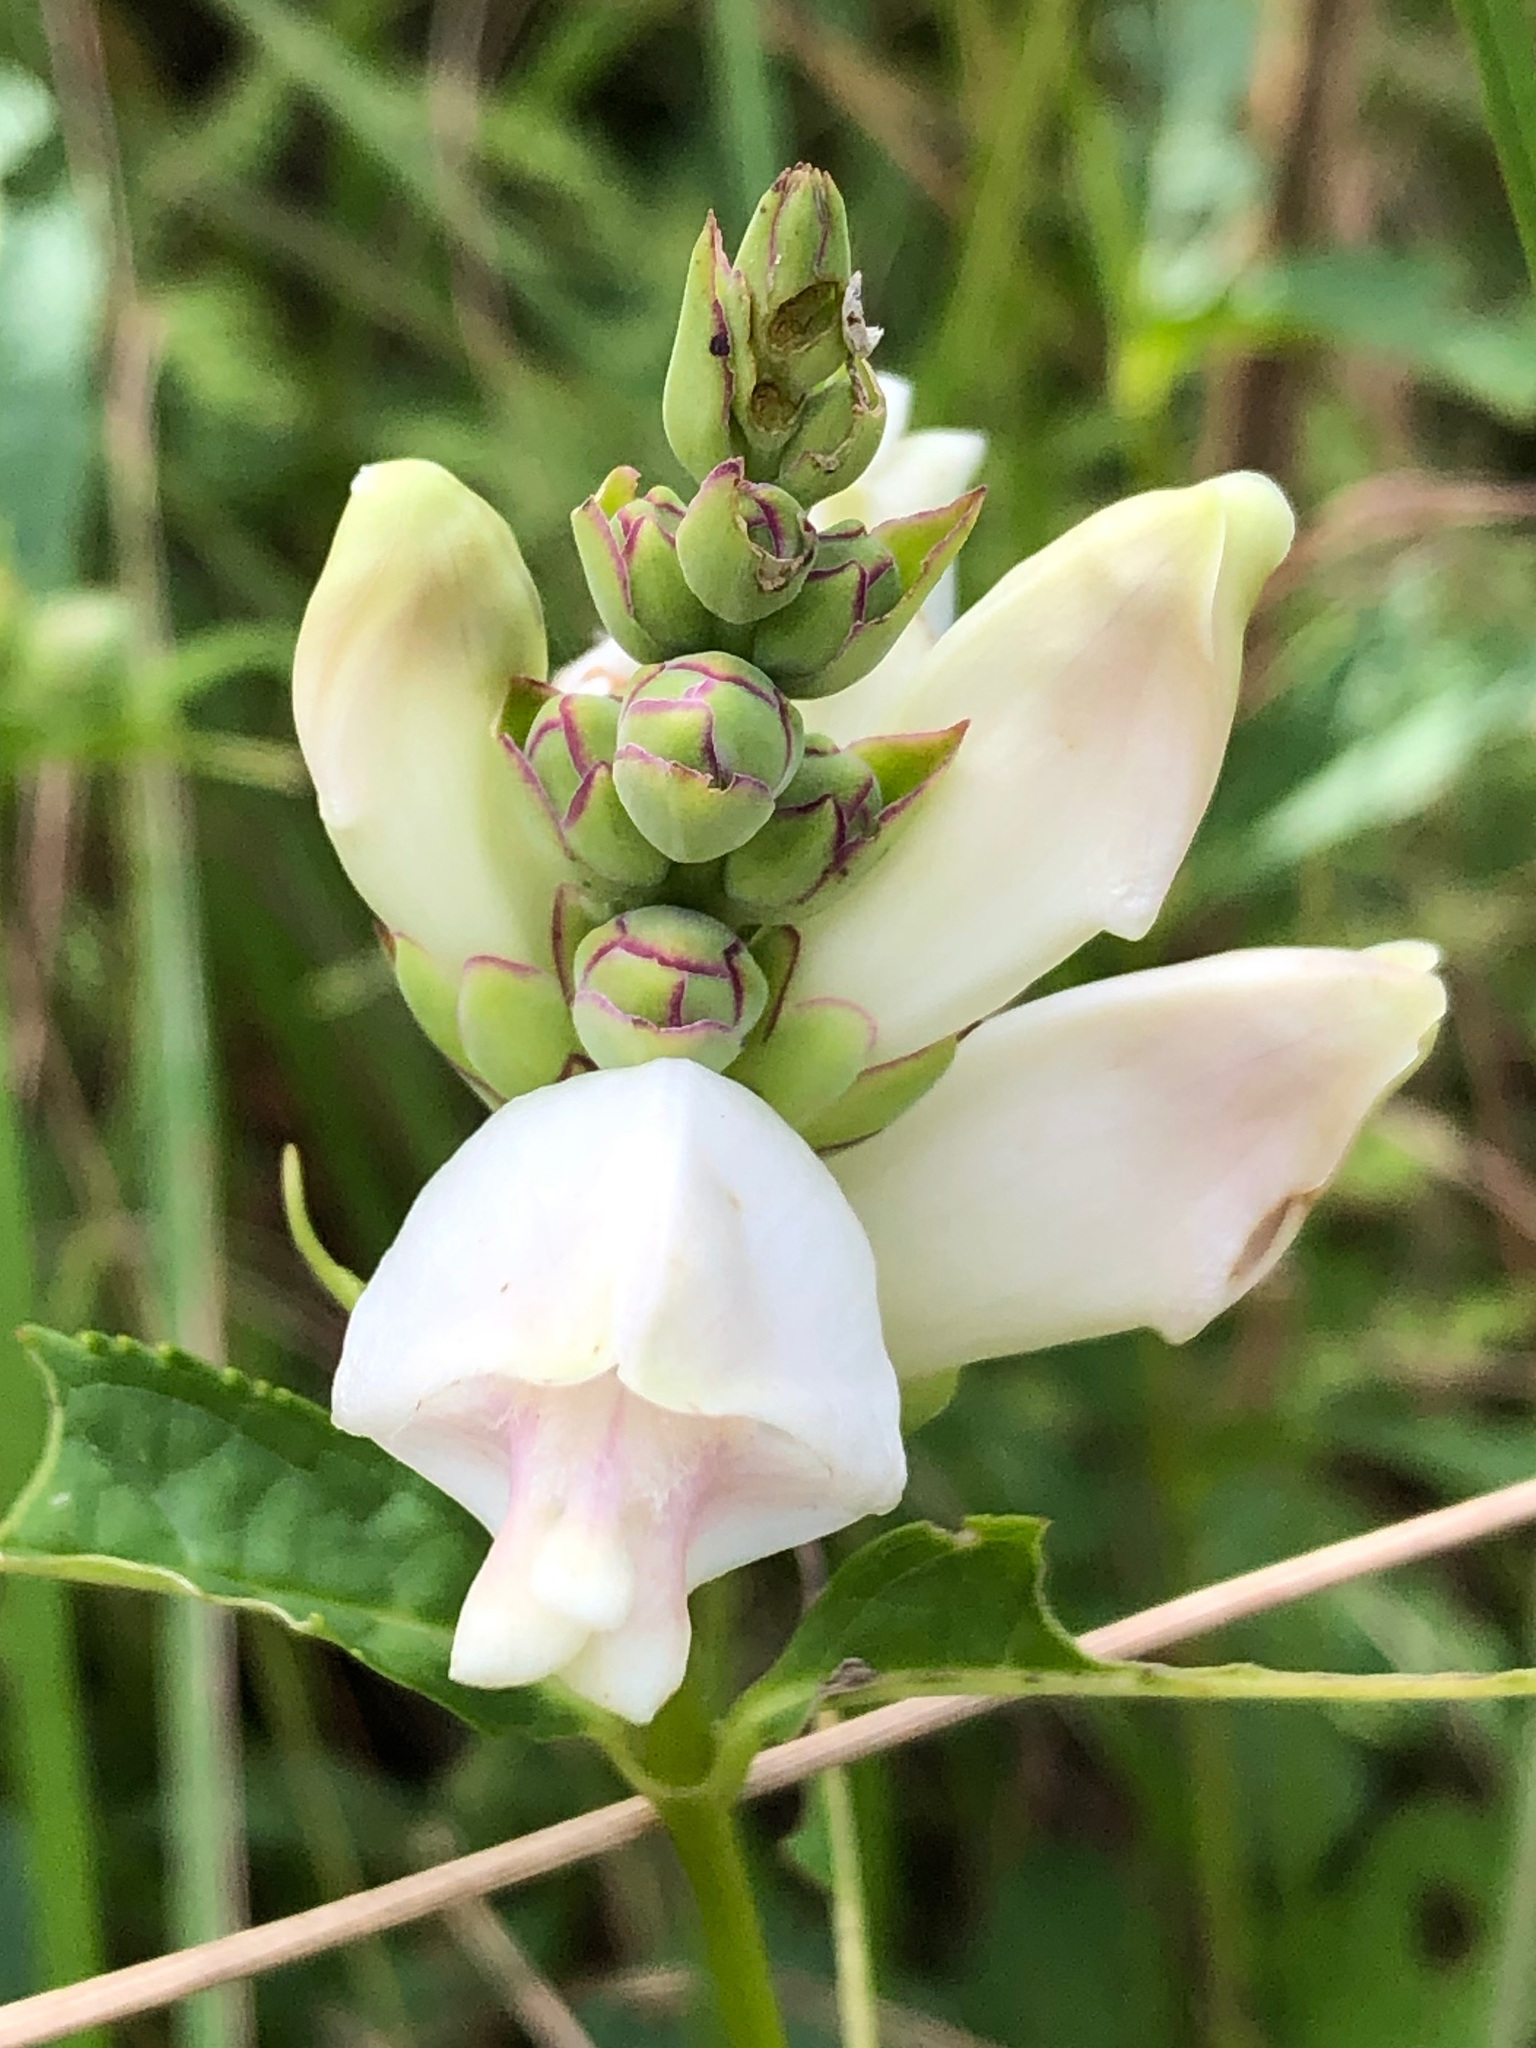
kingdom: Plantae
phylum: Tracheophyta
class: Magnoliopsida
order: Lamiales
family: Plantaginaceae
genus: Chelone
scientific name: Chelone glabra
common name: Snakehead
